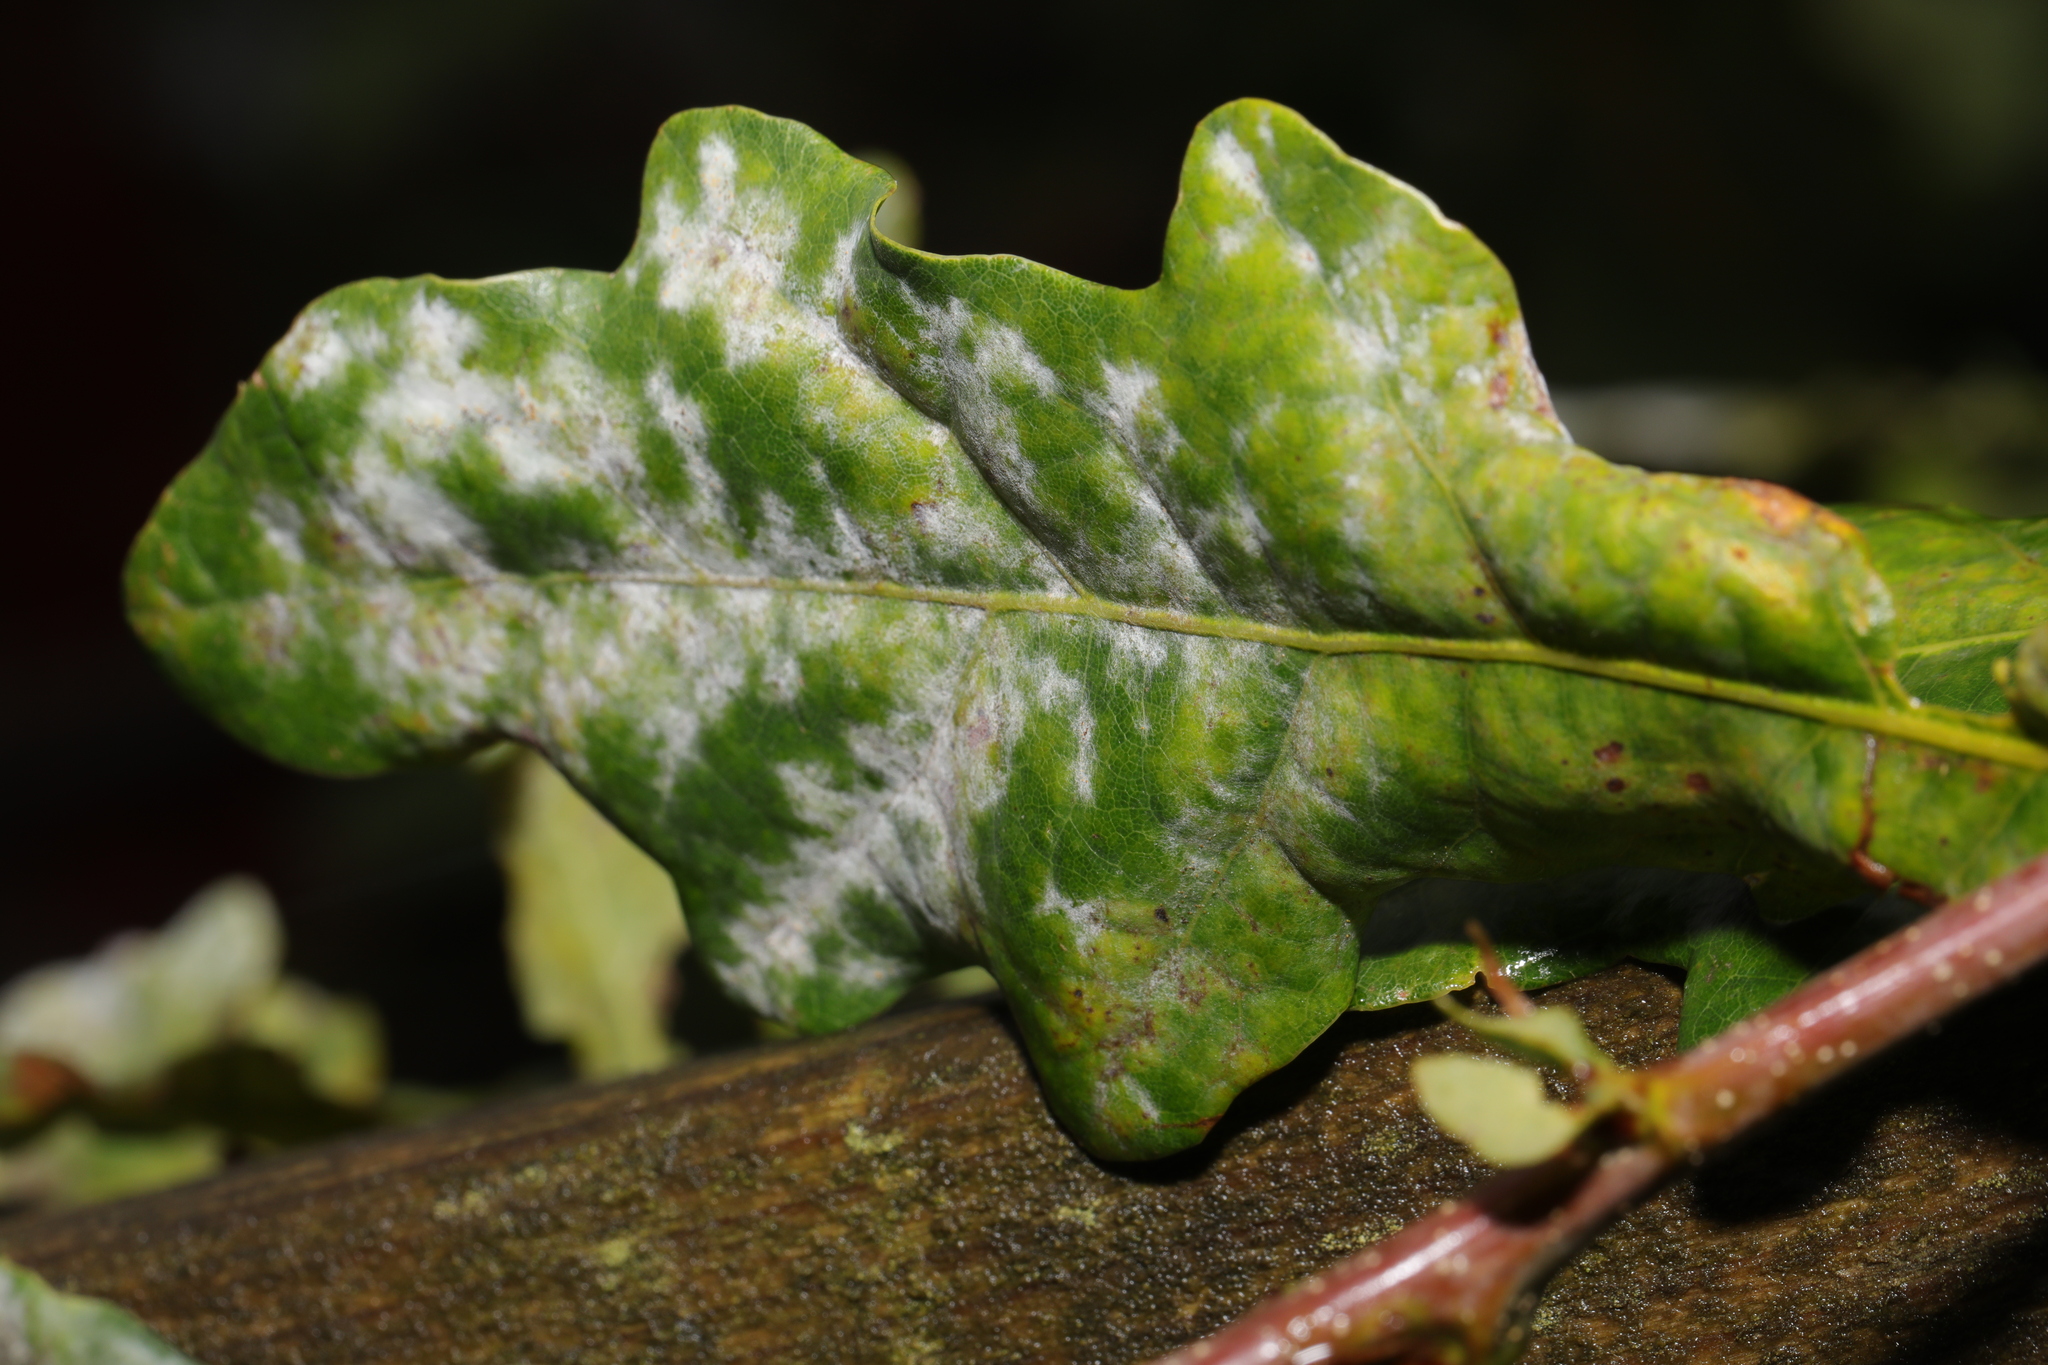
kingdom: Fungi
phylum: Ascomycota
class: Leotiomycetes
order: Helotiales
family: Erysiphaceae
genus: Erysiphe
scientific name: Erysiphe alphitoides
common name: Oak mildew
